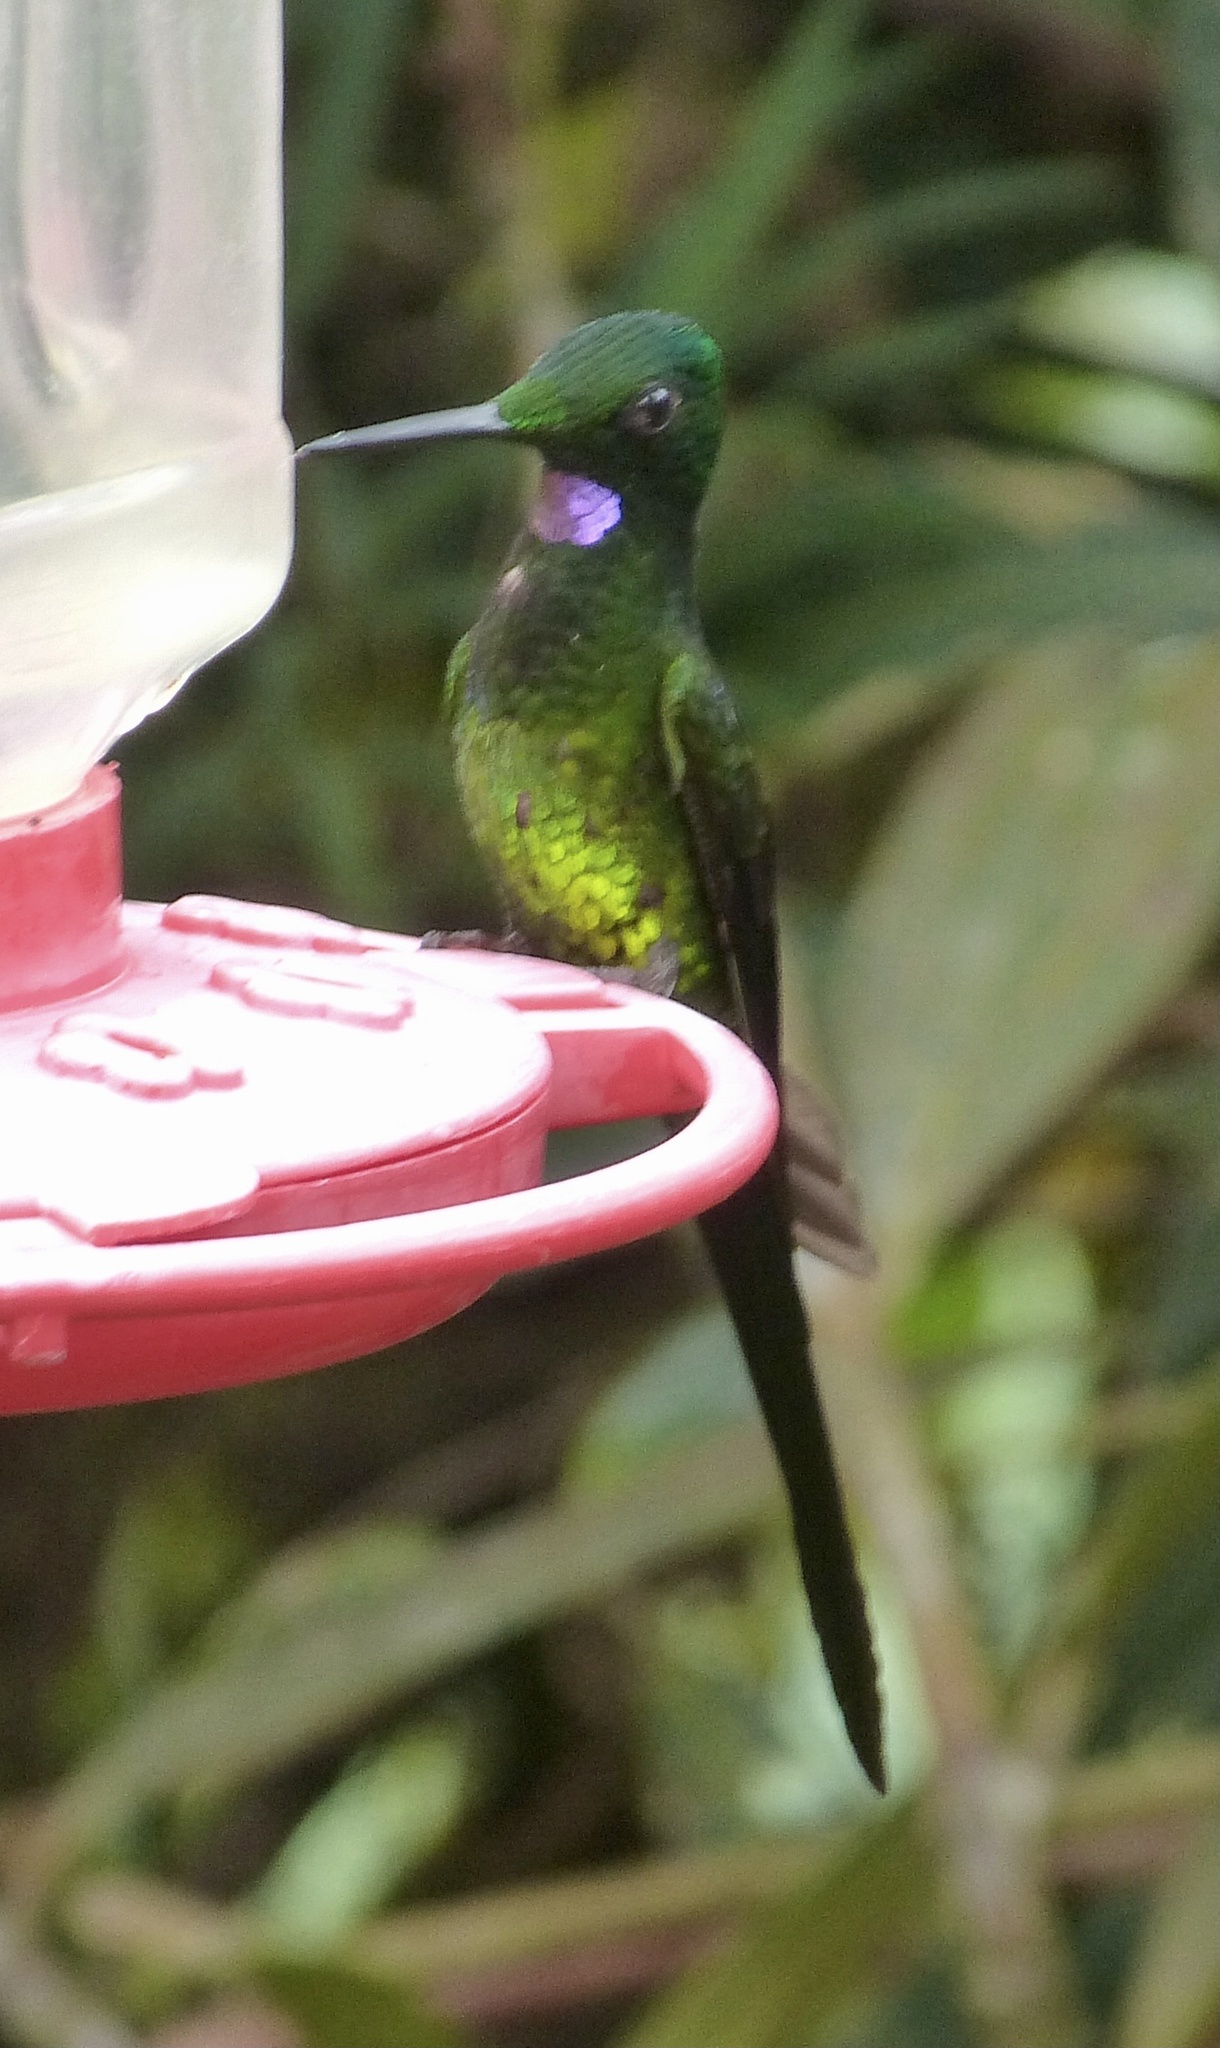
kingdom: Animalia
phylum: Chordata
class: Aves
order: Apodiformes
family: Trochilidae
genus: Heliodoxa
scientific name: Heliodoxa imperatrix
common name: Empress brilliant
